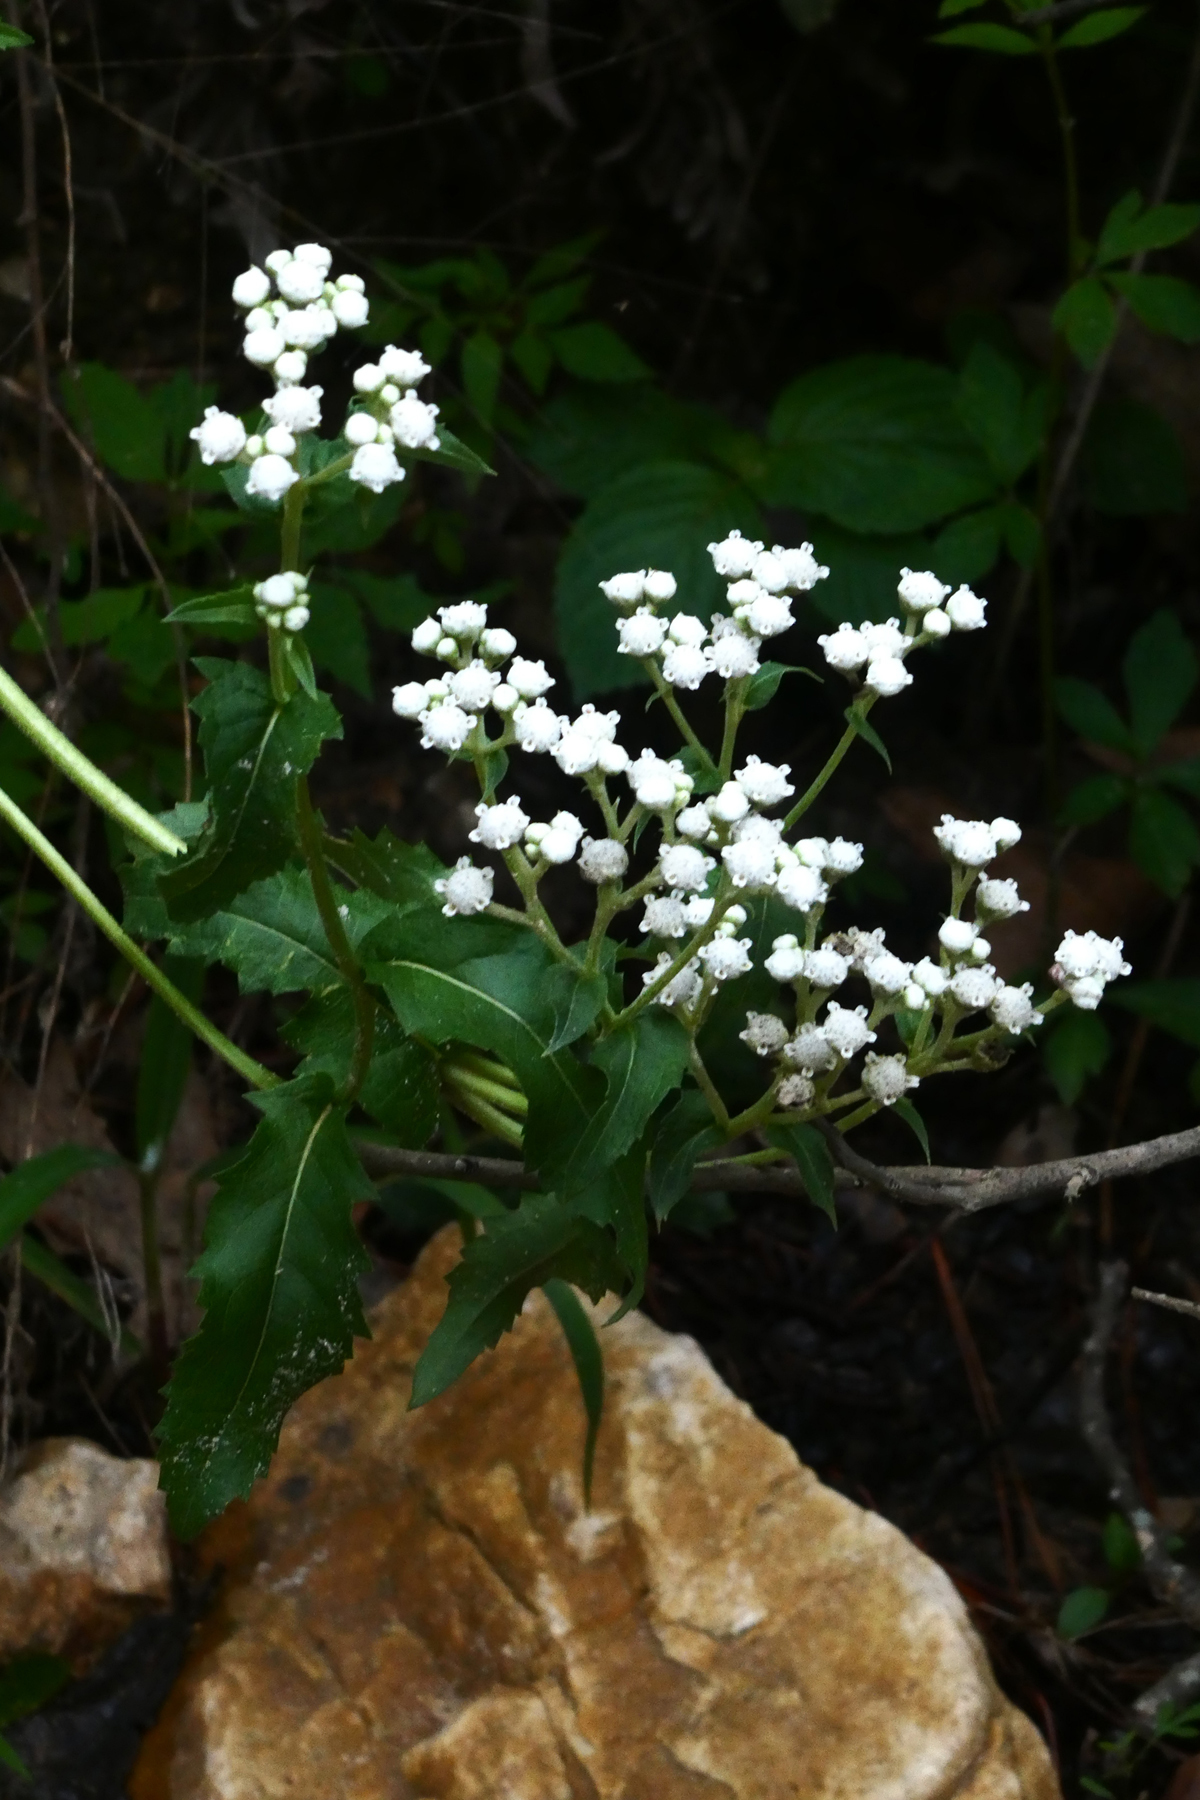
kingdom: Plantae
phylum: Tracheophyta
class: Magnoliopsida
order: Asterales
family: Asteraceae
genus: Parthenium
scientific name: Parthenium integrifolium
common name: American feverfew
